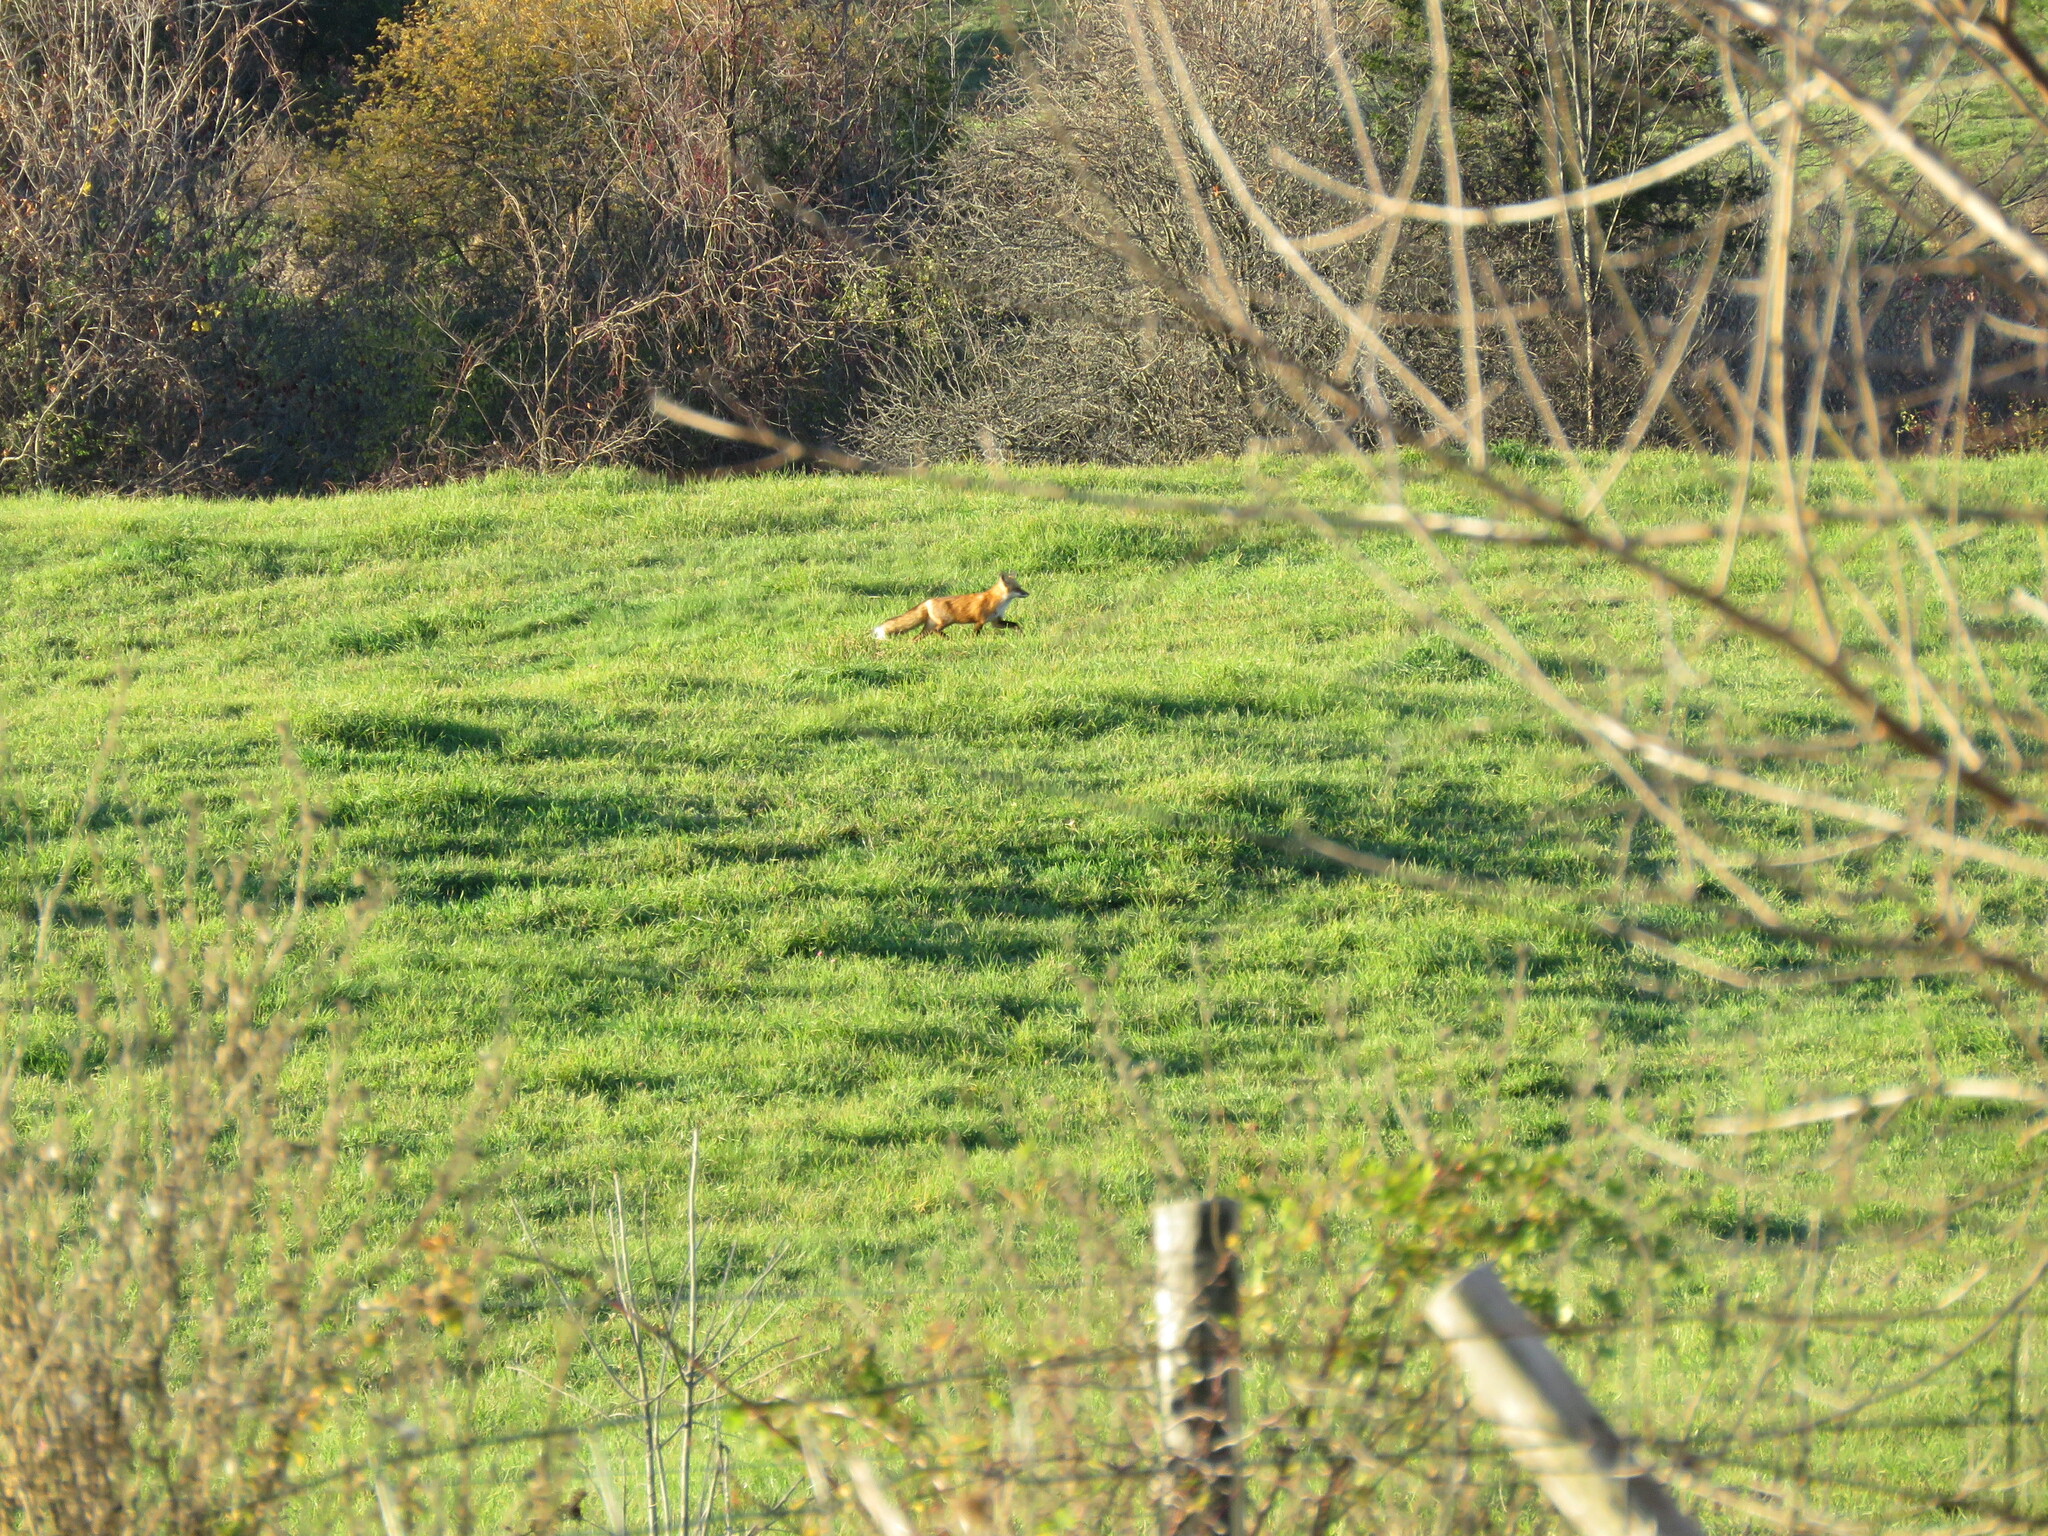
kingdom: Animalia
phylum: Chordata
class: Mammalia
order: Carnivora
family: Canidae
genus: Vulpes
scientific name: Vulpes vulpes
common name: Red fox
